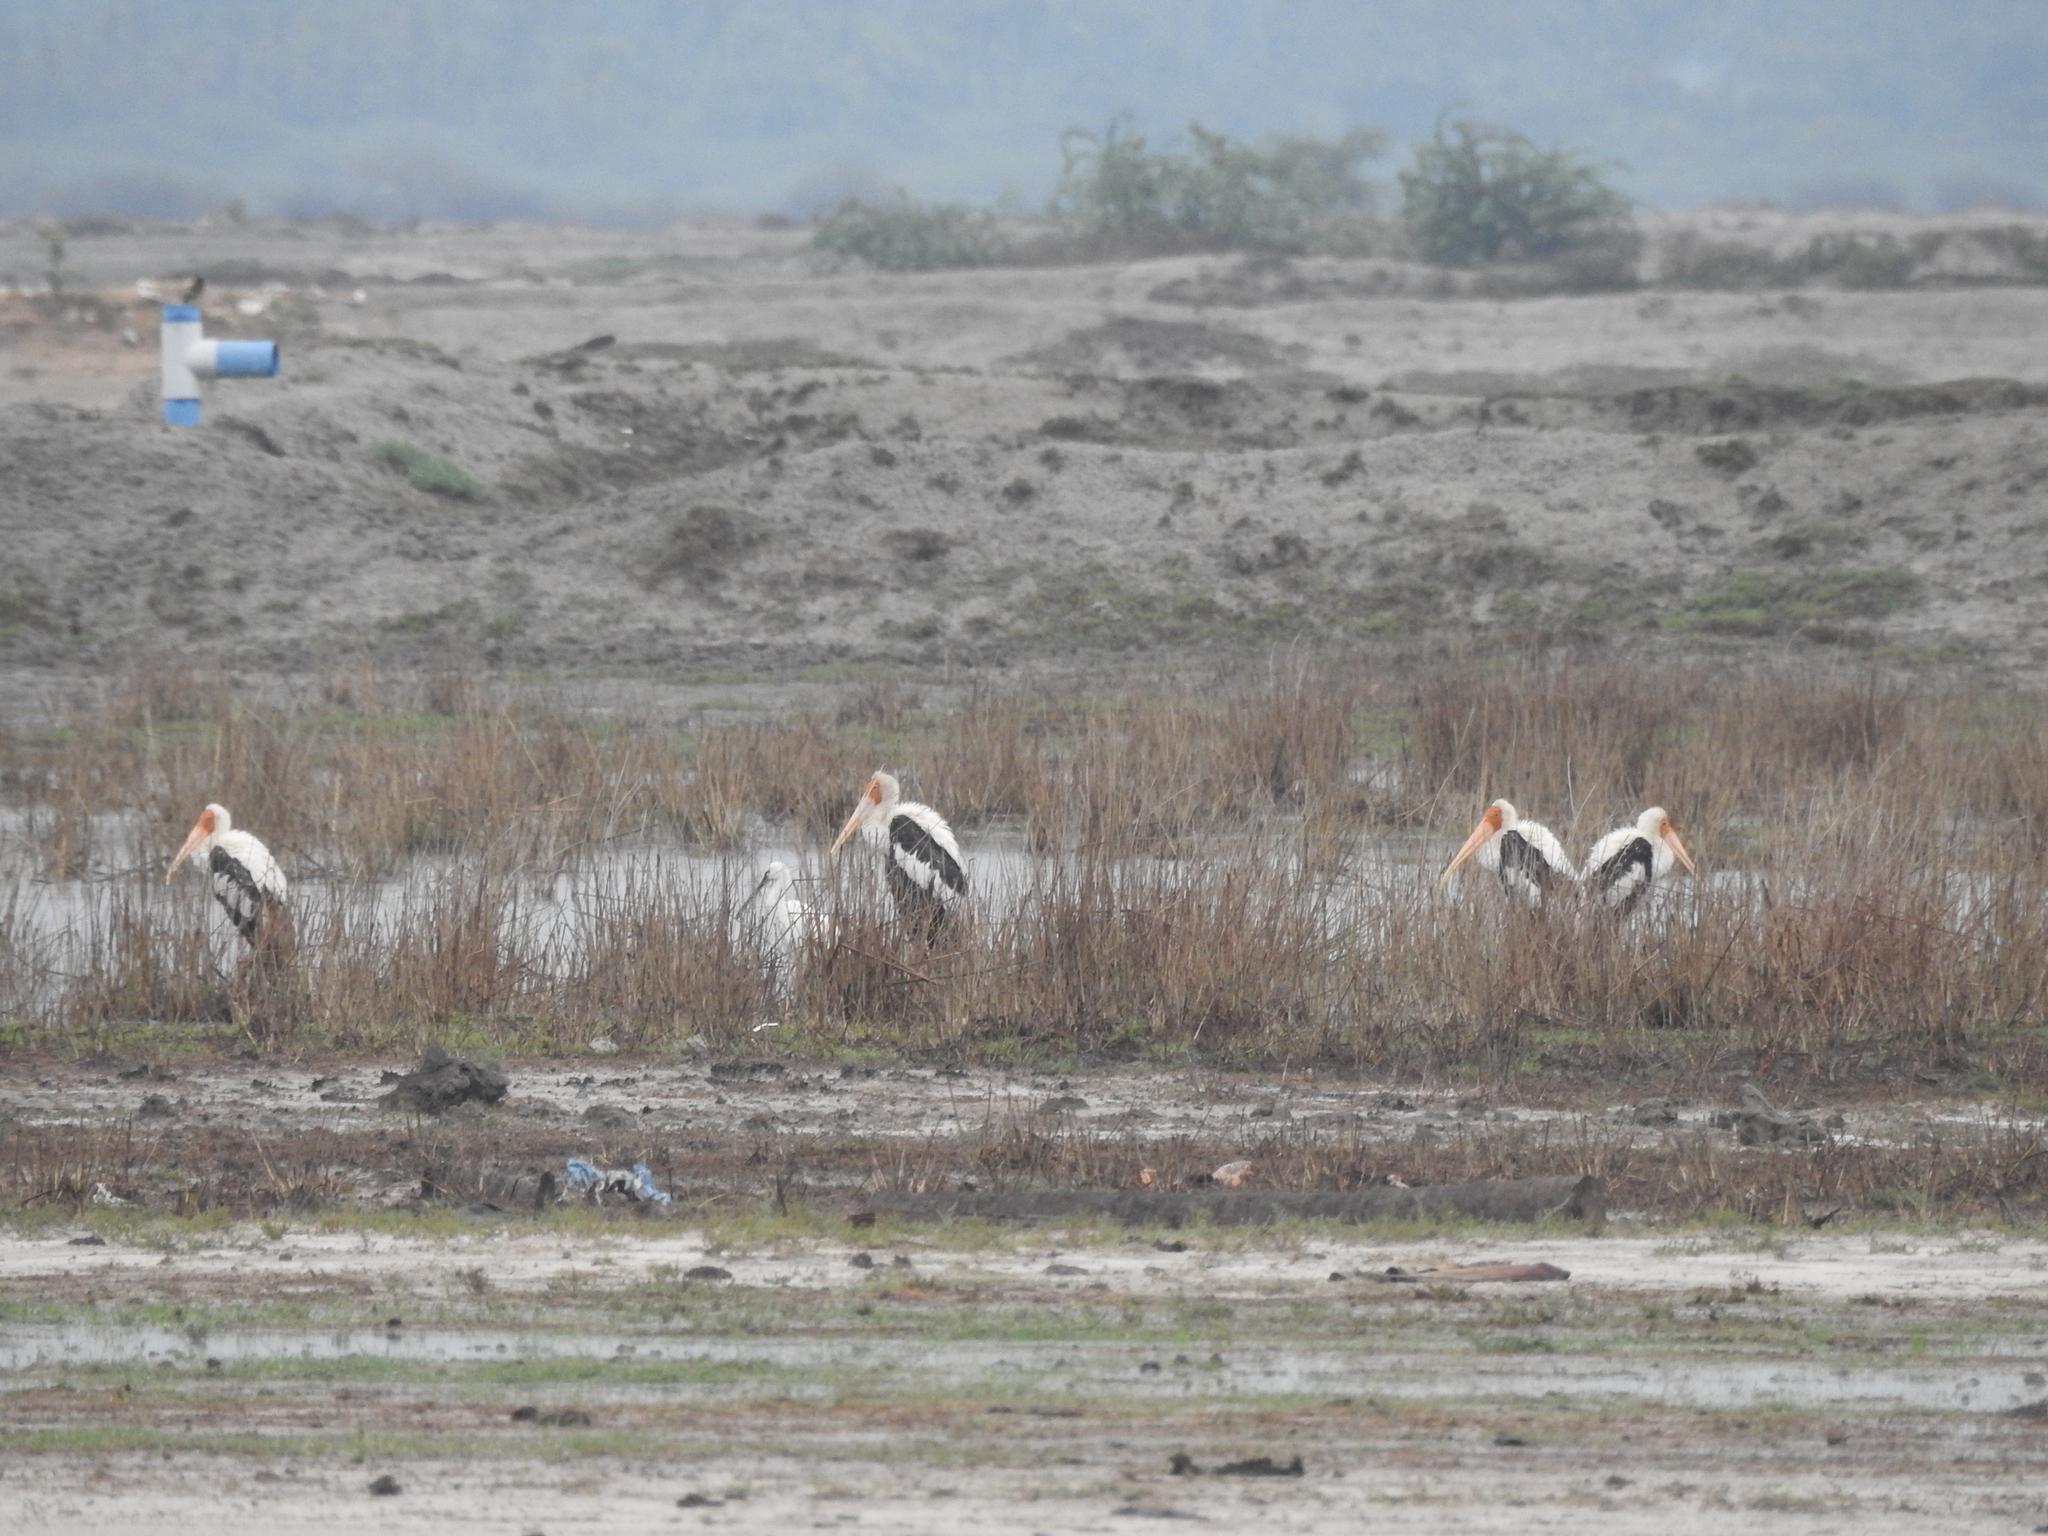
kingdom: Animalia
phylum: Chordata
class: Aves
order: Ciconiiformes
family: Ciconiidae
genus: Mycteria
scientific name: Mycteria leucocephala
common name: Painted stork
